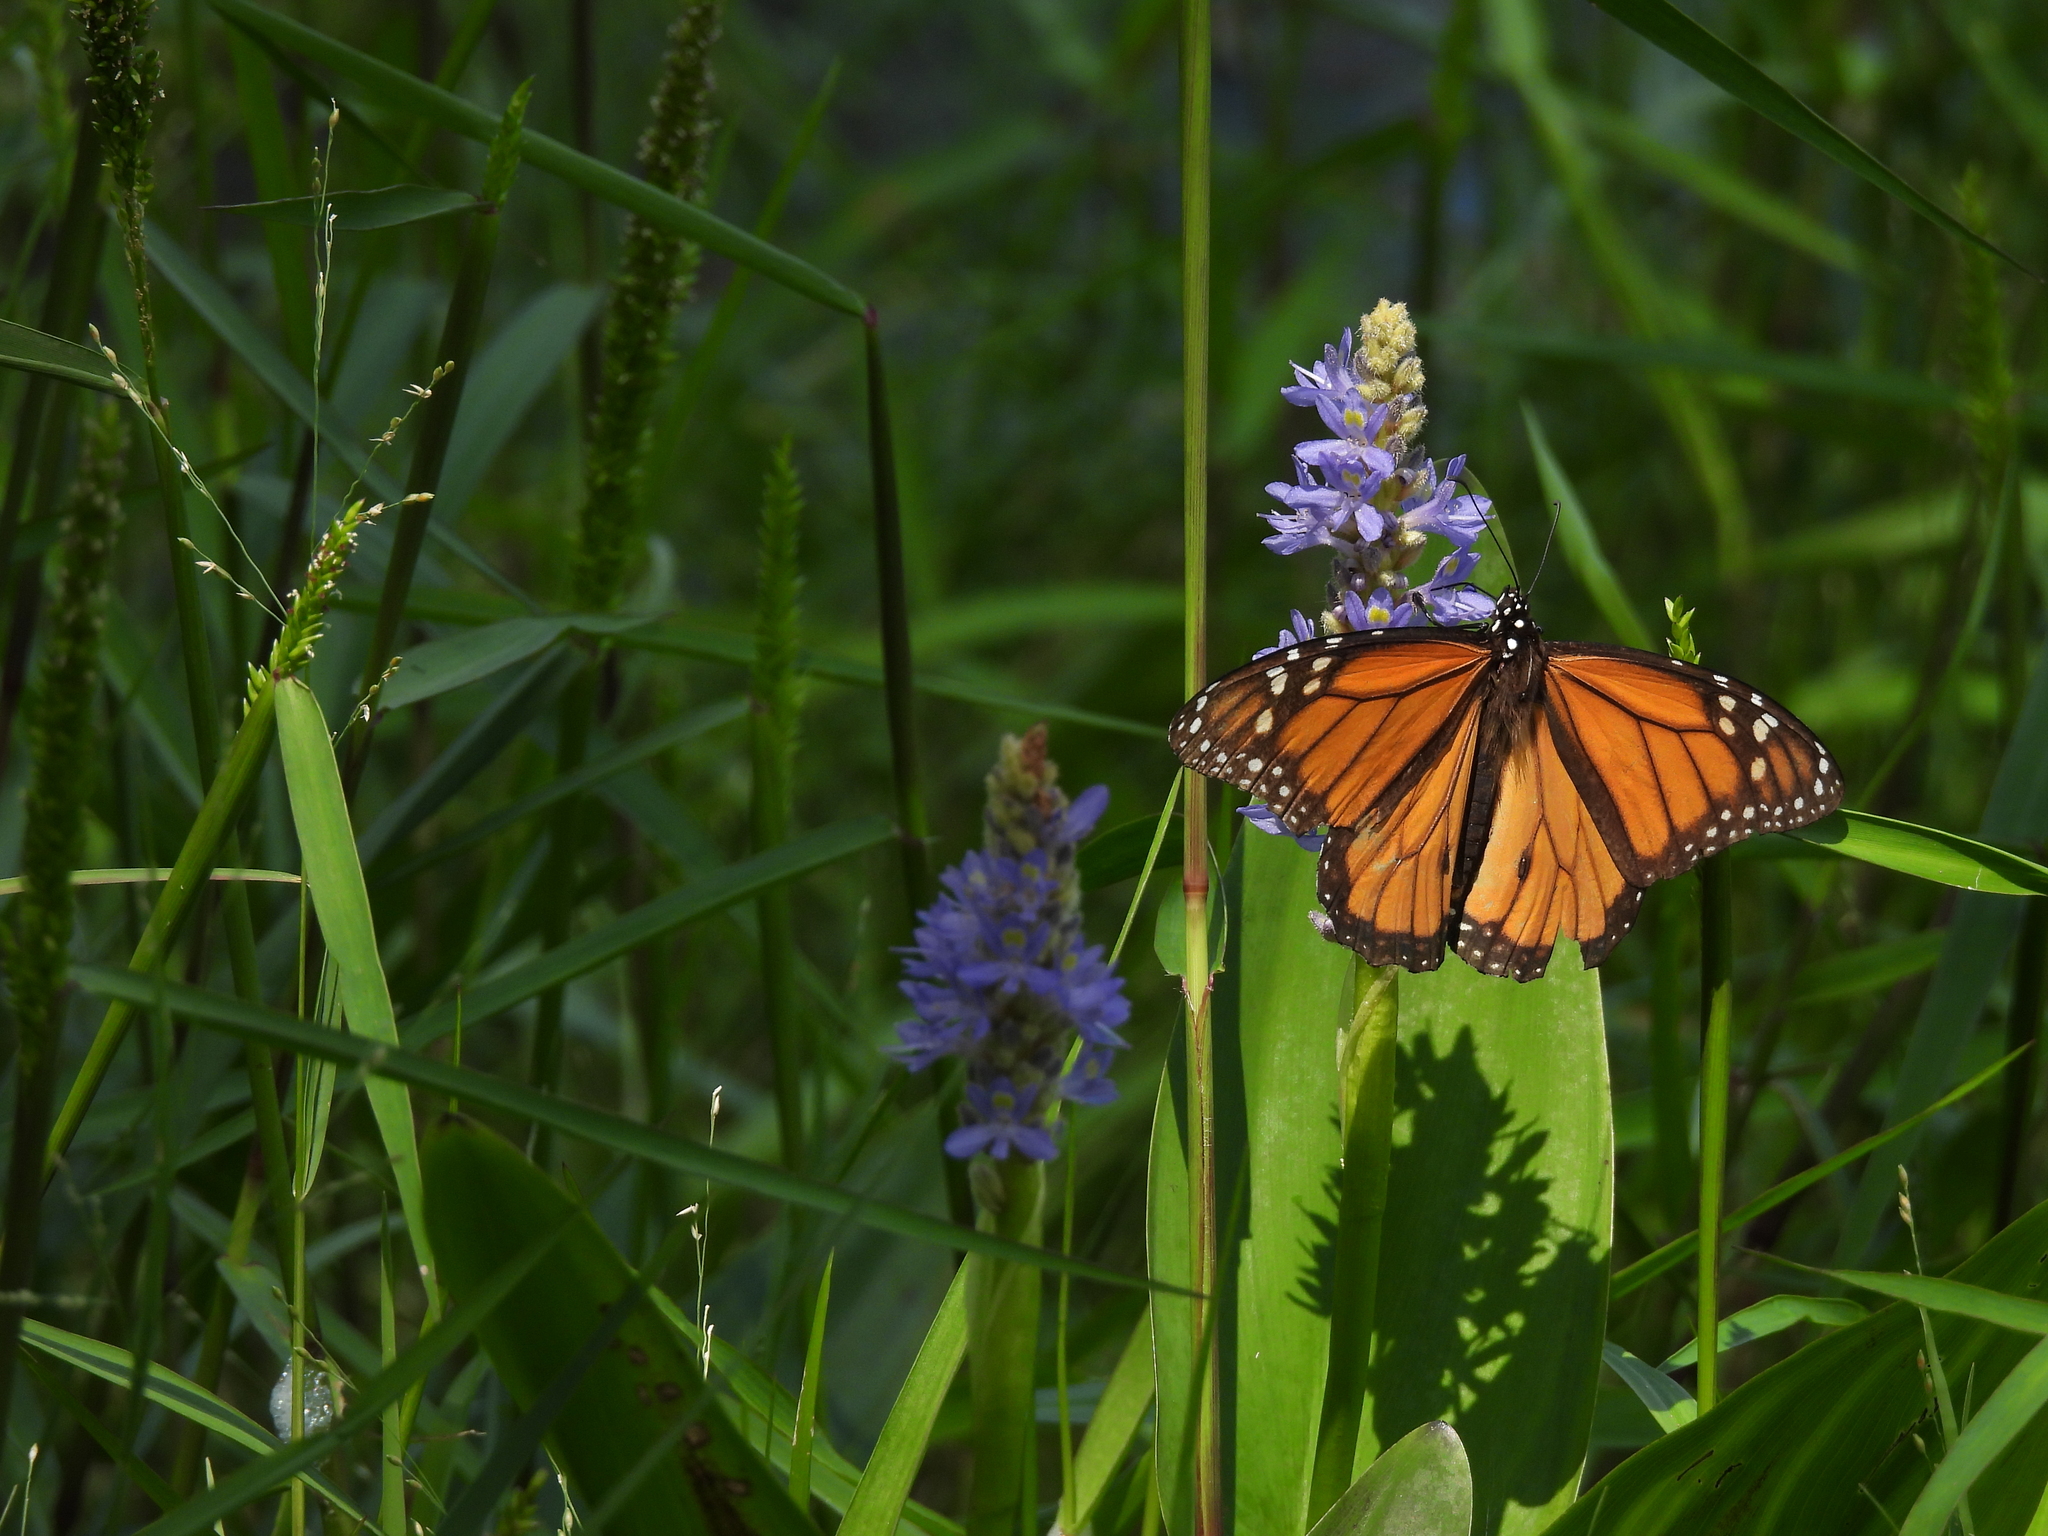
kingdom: Animalia
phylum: Arthropoda
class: Insecta
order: Lepidoptera
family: Nymphalidae
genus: Danaus
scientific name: Danaus plexippus
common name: Monarch
